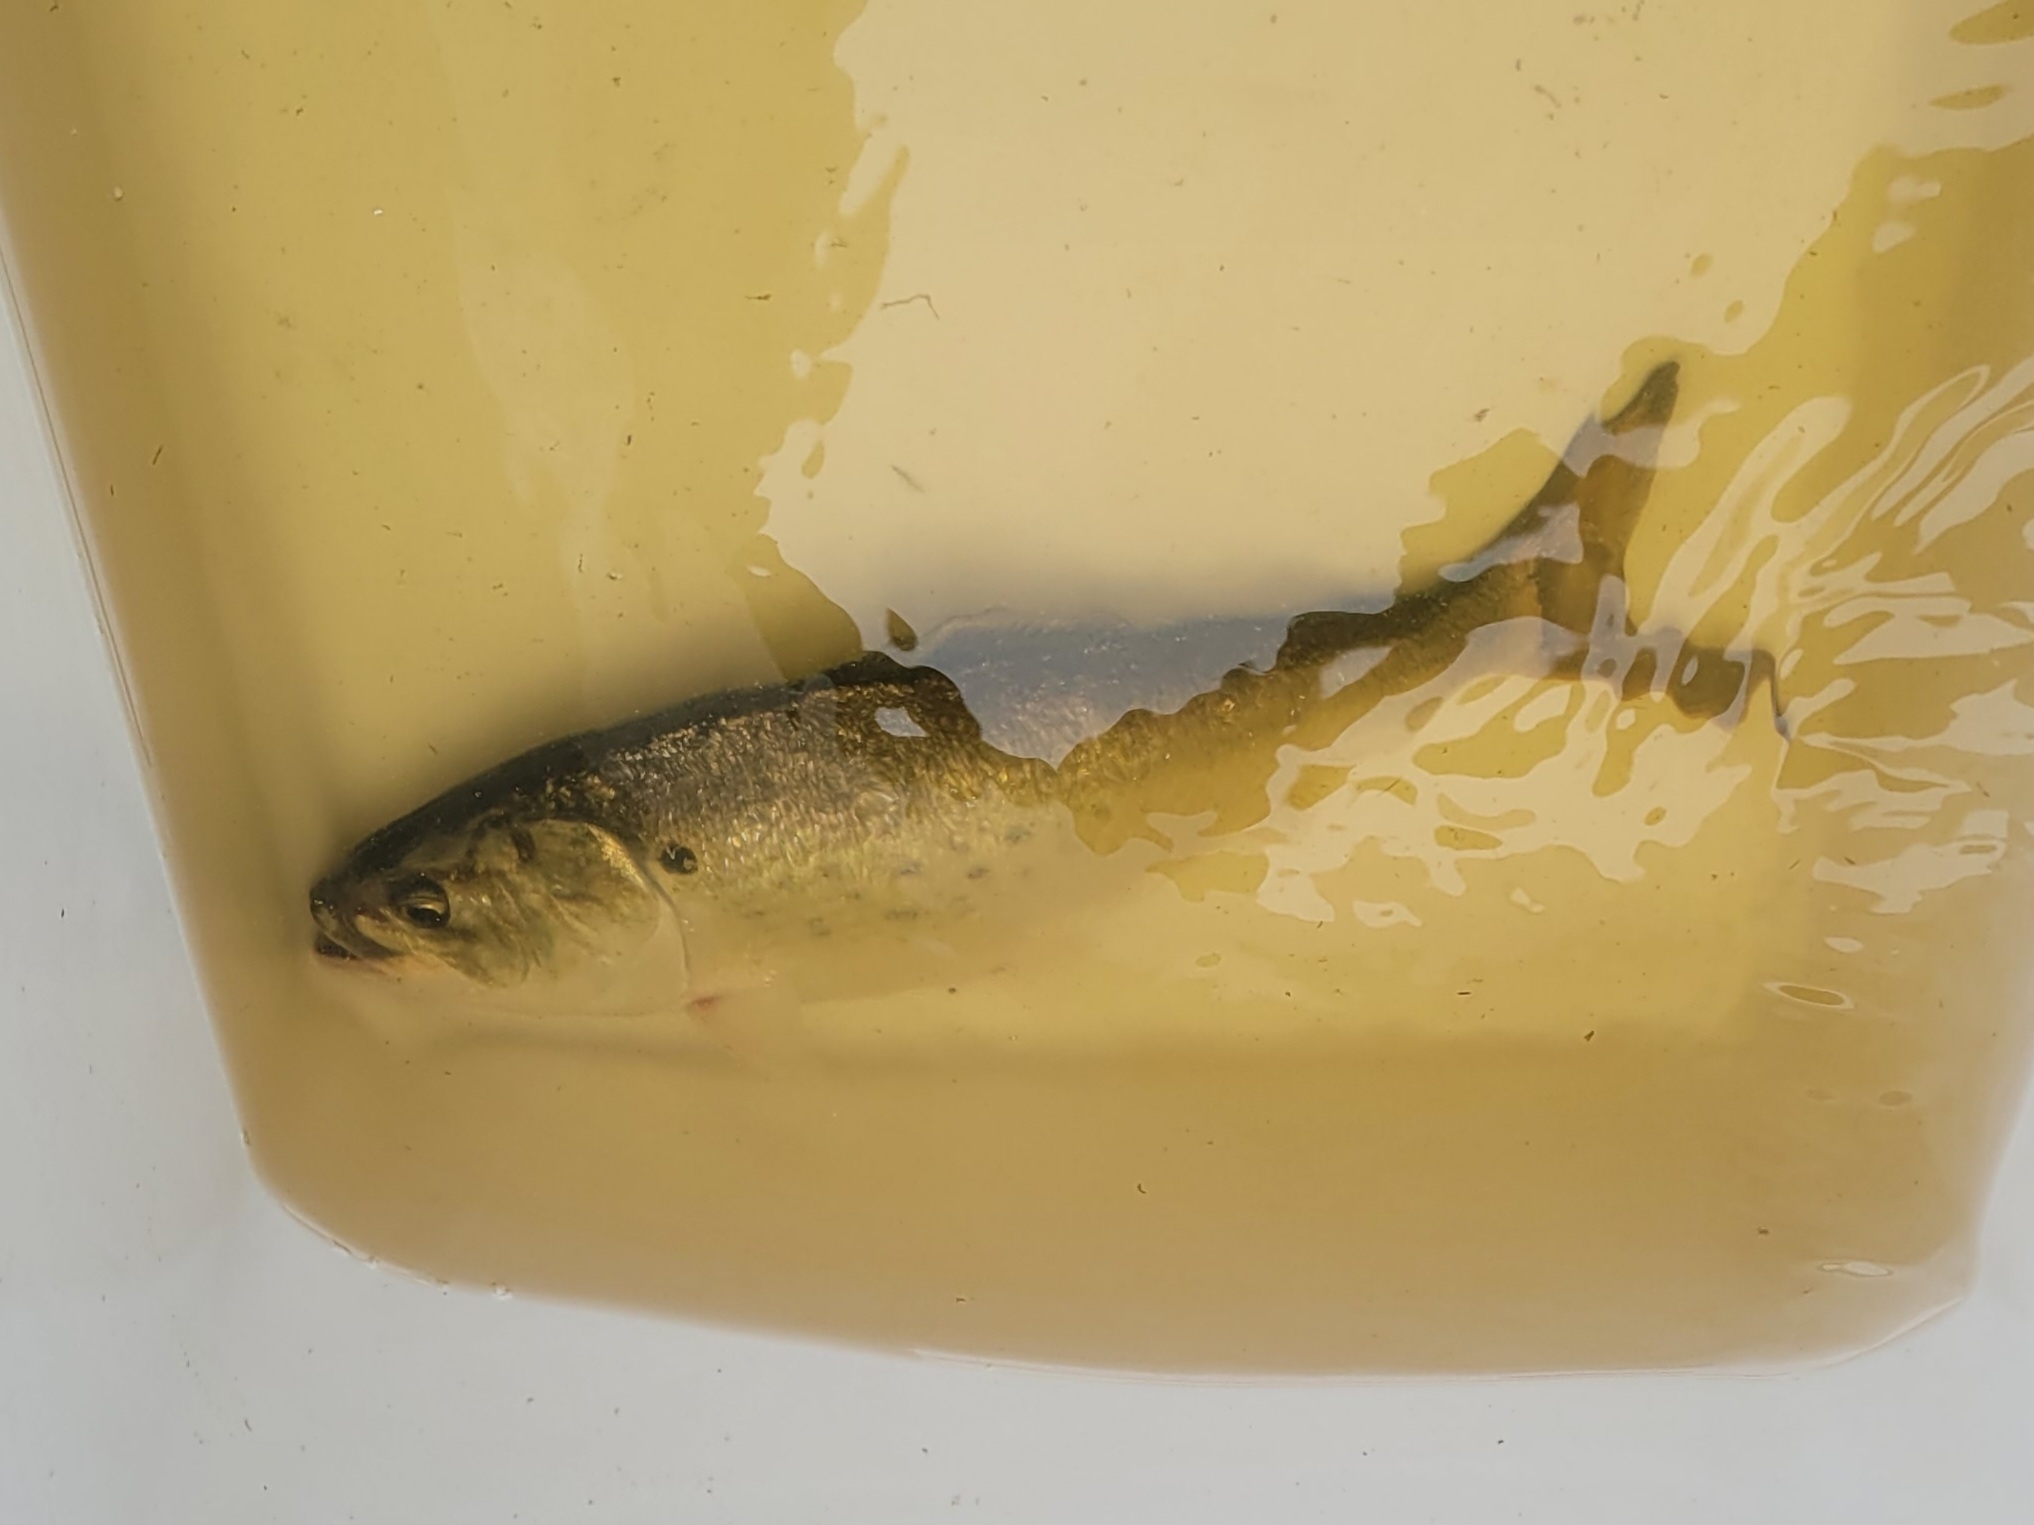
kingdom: Animalia
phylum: Chordata
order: Clupeiformes
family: Clupeidae
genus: Brevoortia
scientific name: Brevoortia tyrannus
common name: Atlantic menhaden
